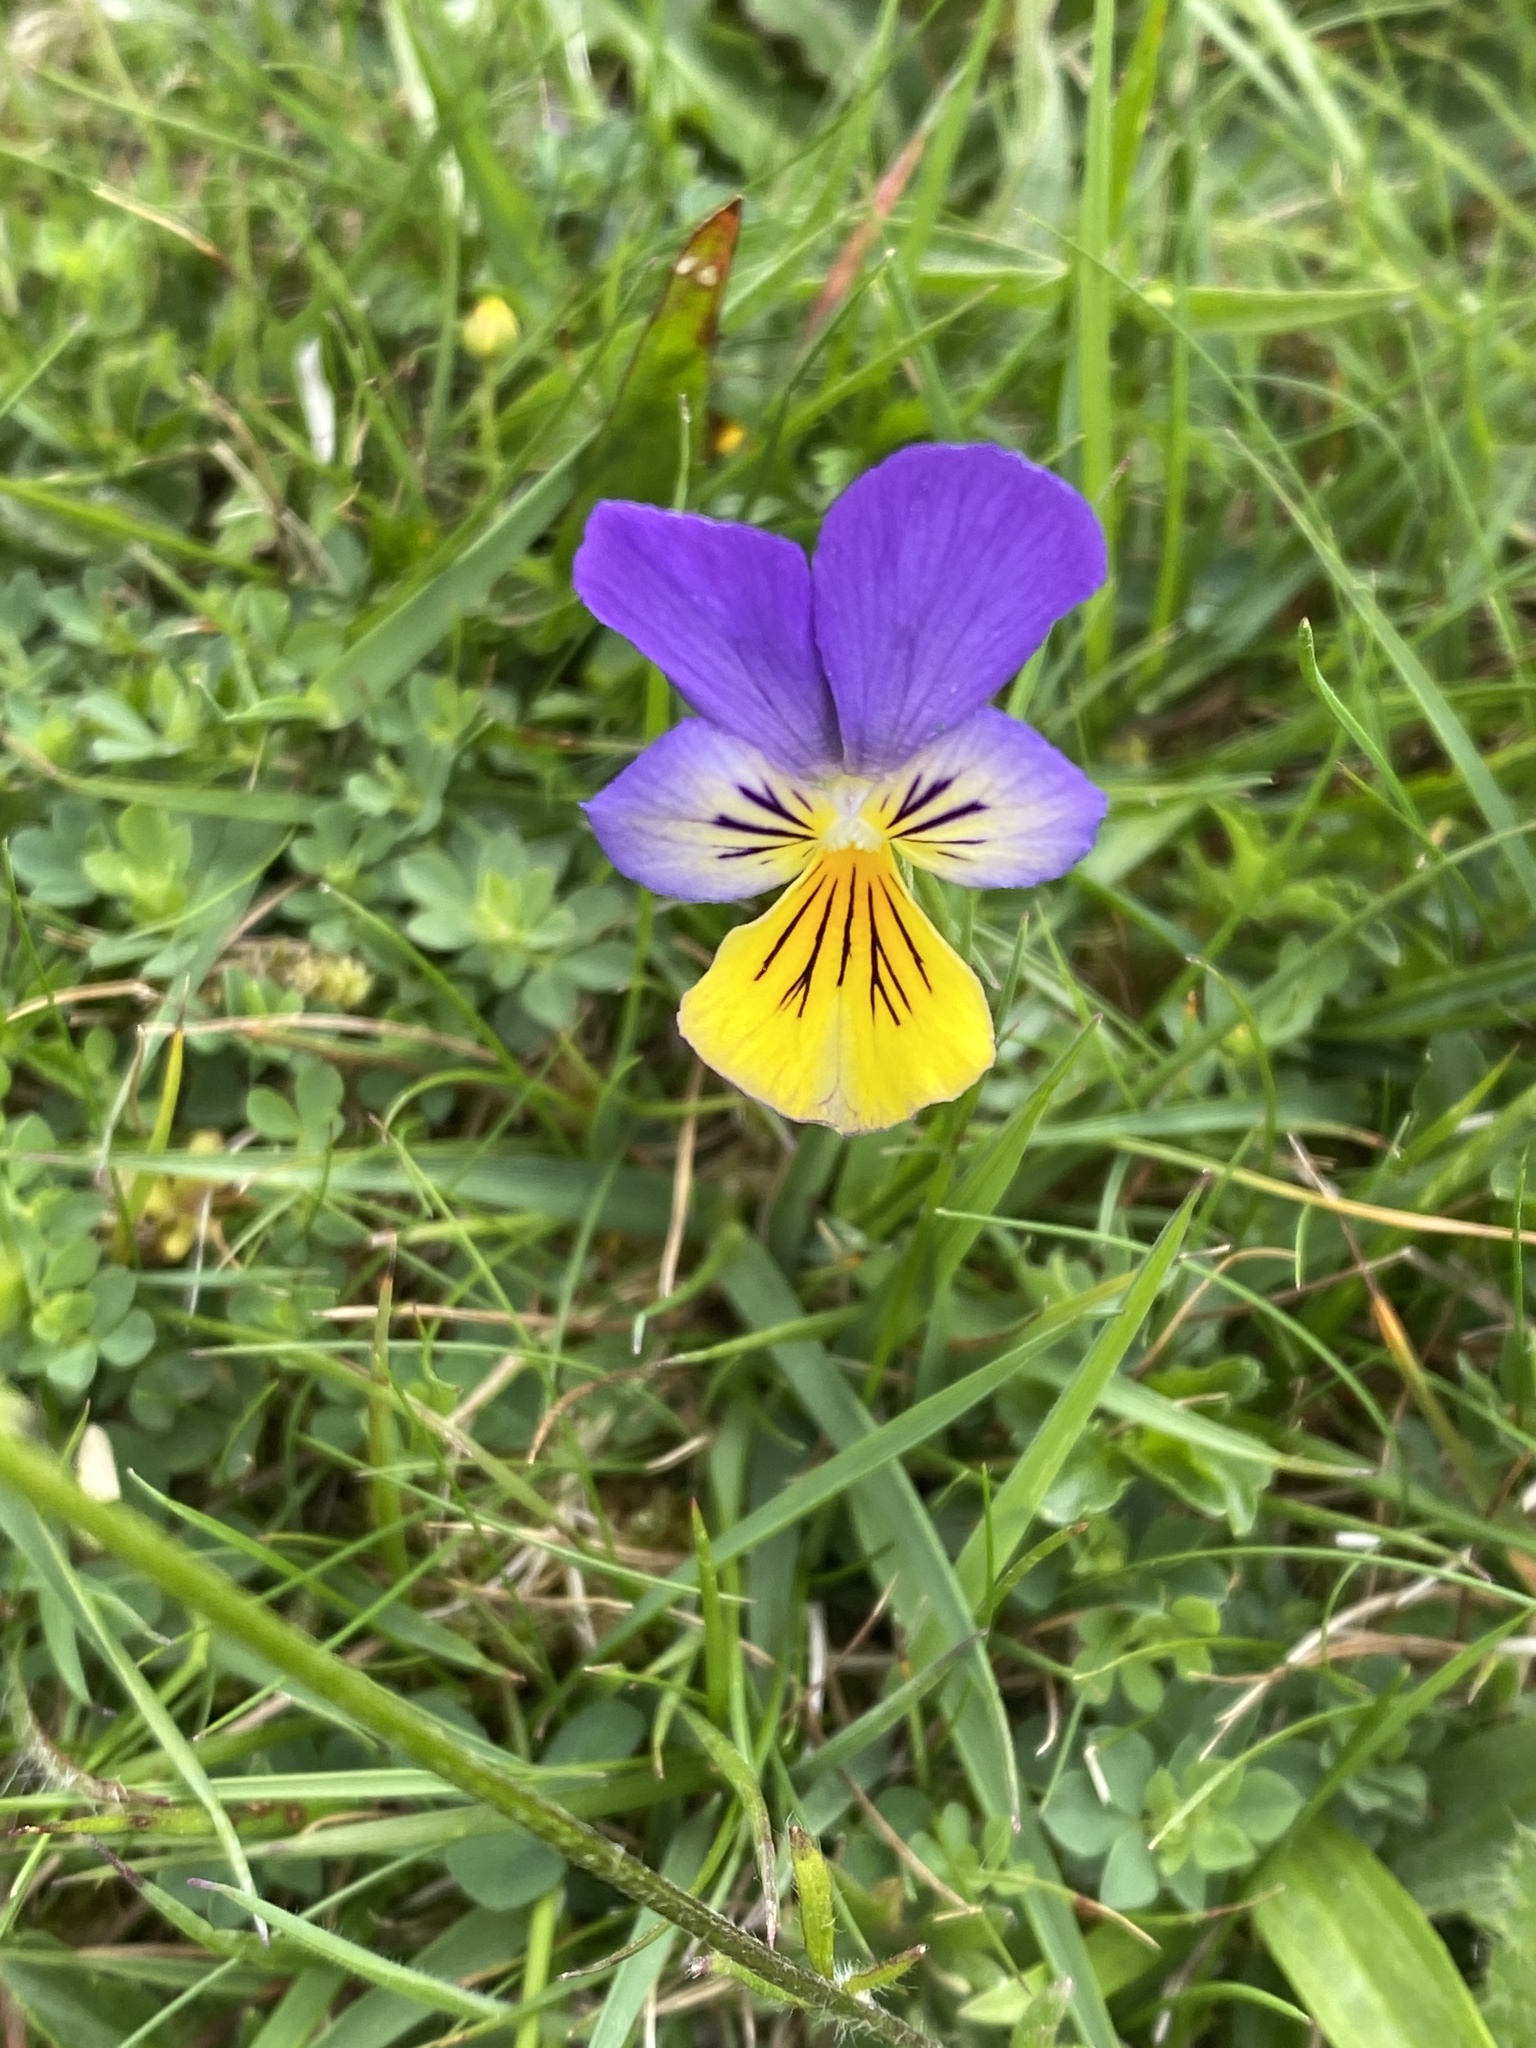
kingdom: Plantae
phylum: Tracheophyta
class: Magnoliopsida
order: Malpighiales
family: Violaceae
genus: Viola
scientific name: Viola tricolor
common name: Pansy
